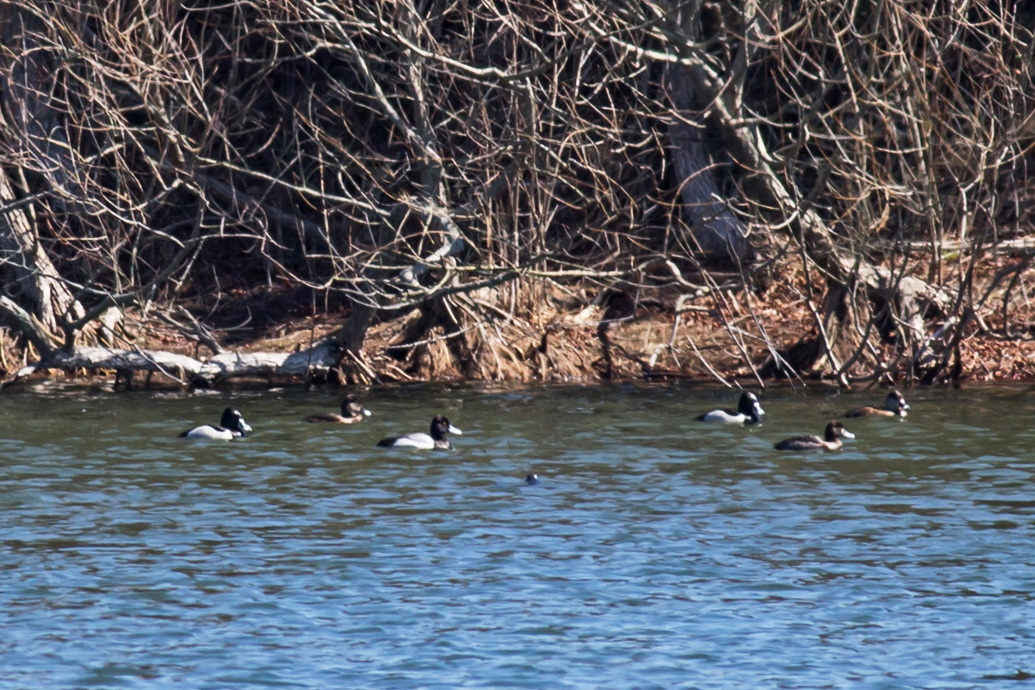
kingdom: Animalia
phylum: Chordata
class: Aves
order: Anseriformes
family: Anatidae
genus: Aythya
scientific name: Aythya affinis
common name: Lesser scaup
